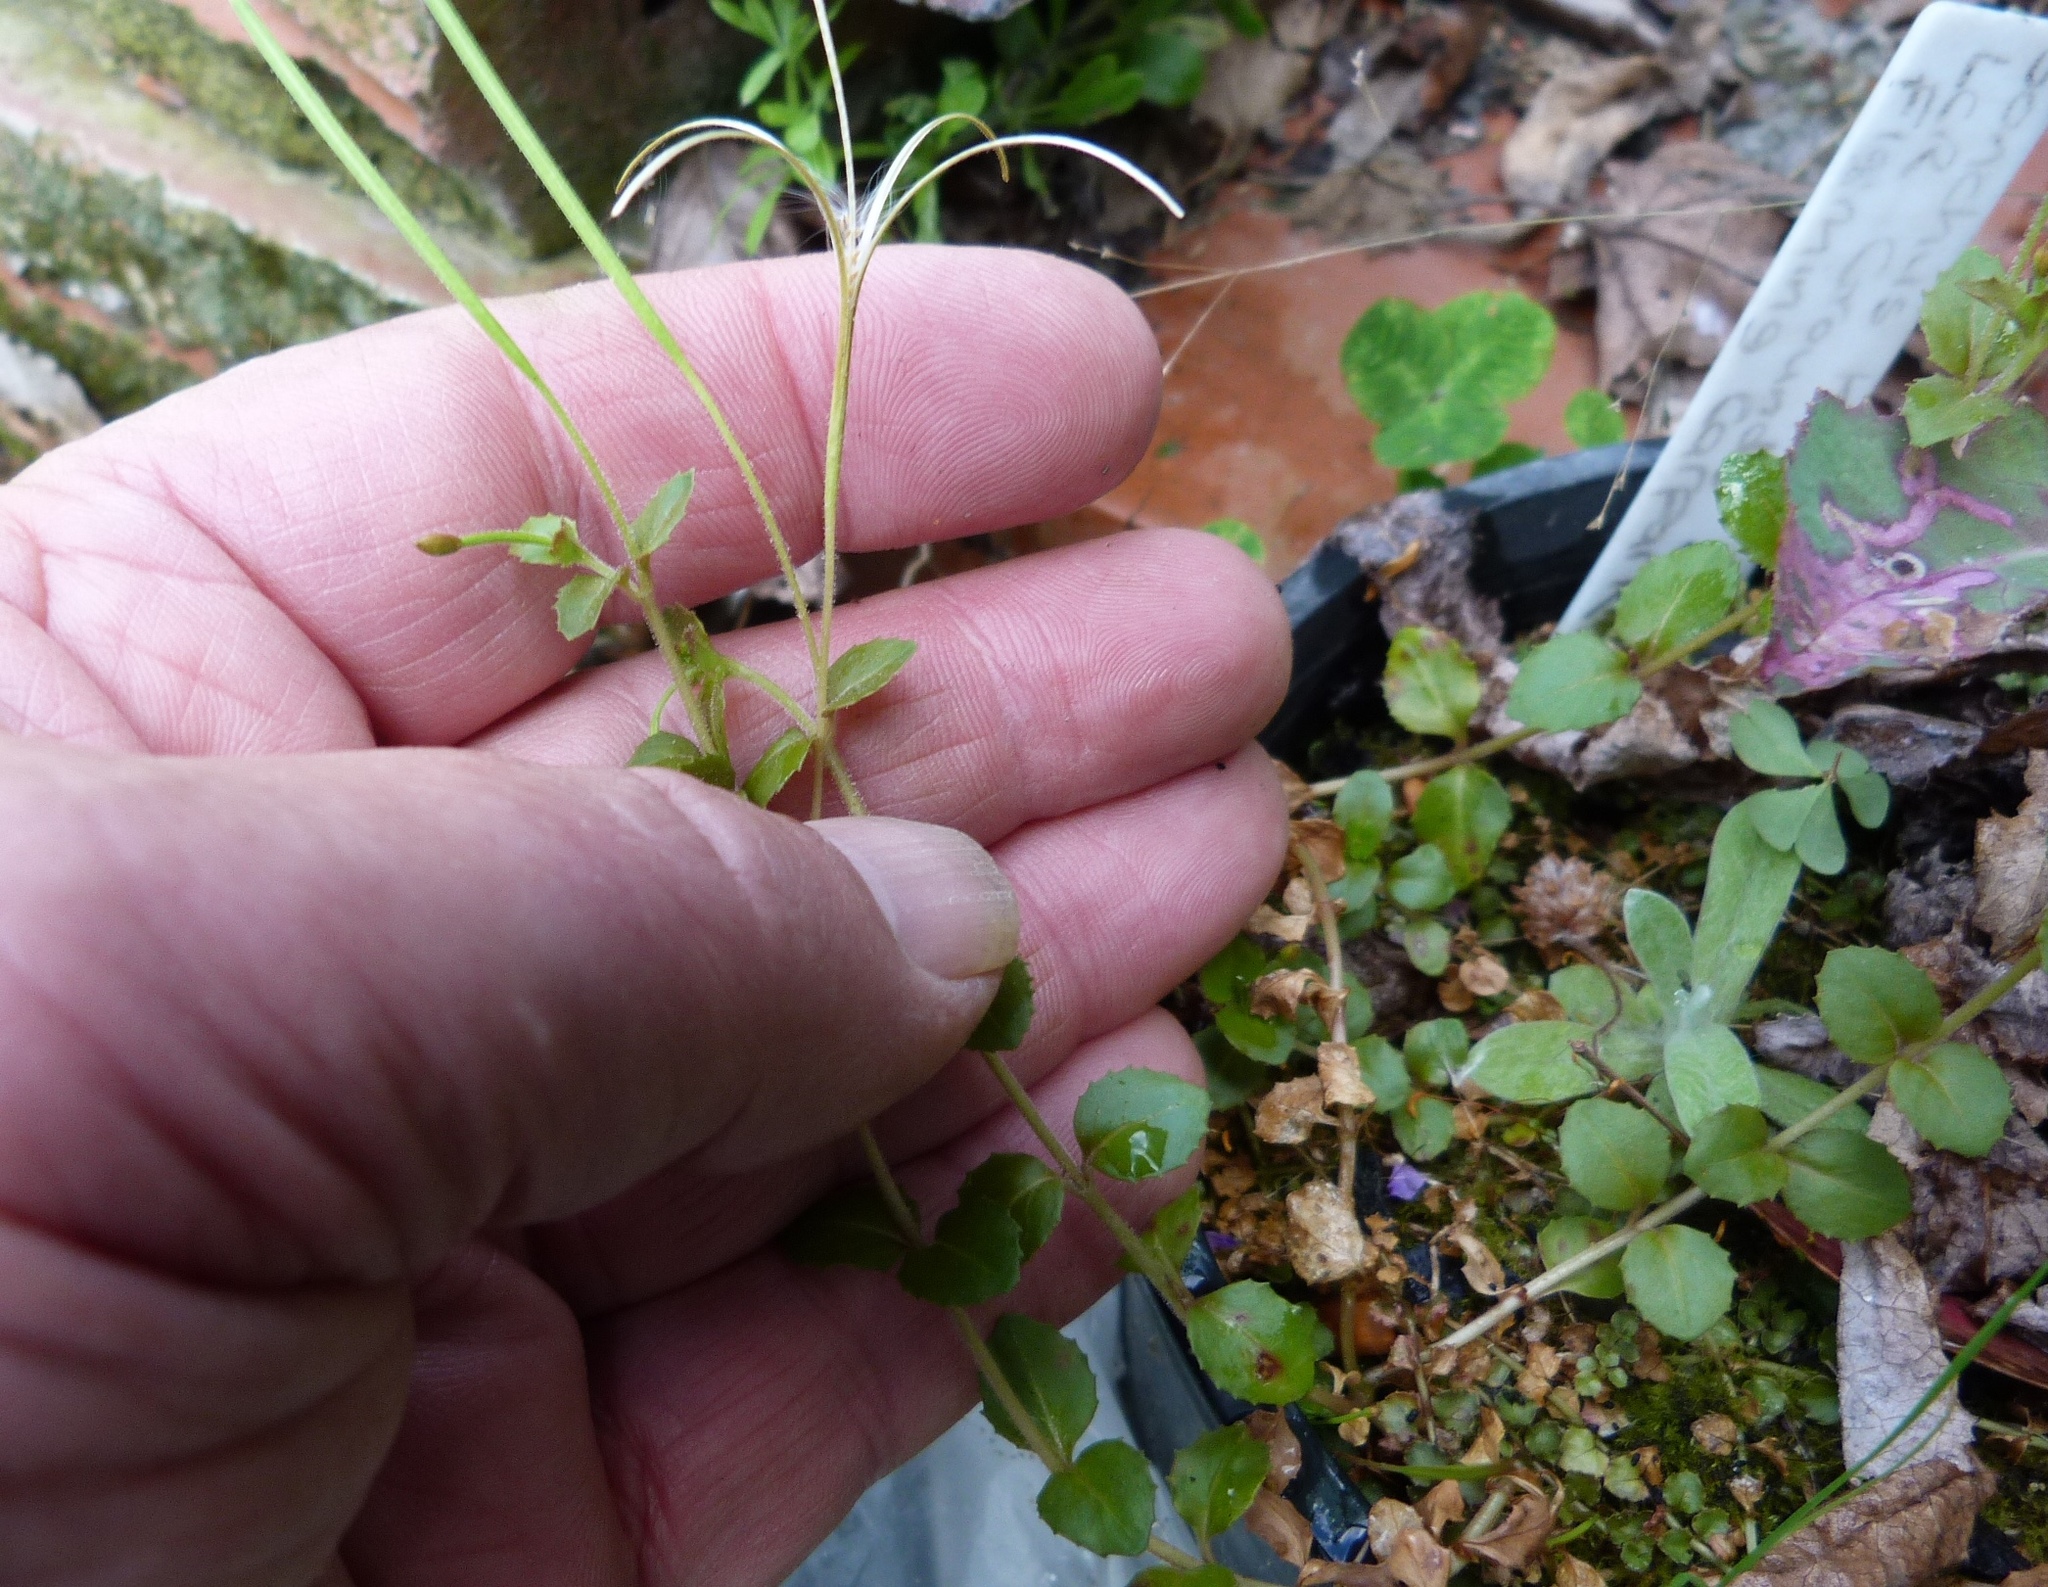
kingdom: Plantae
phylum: Tracheophyta
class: Magnoliopsida
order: Myrtales
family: Onagraceae
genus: Epilobium
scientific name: Epilobium rotundifolium
